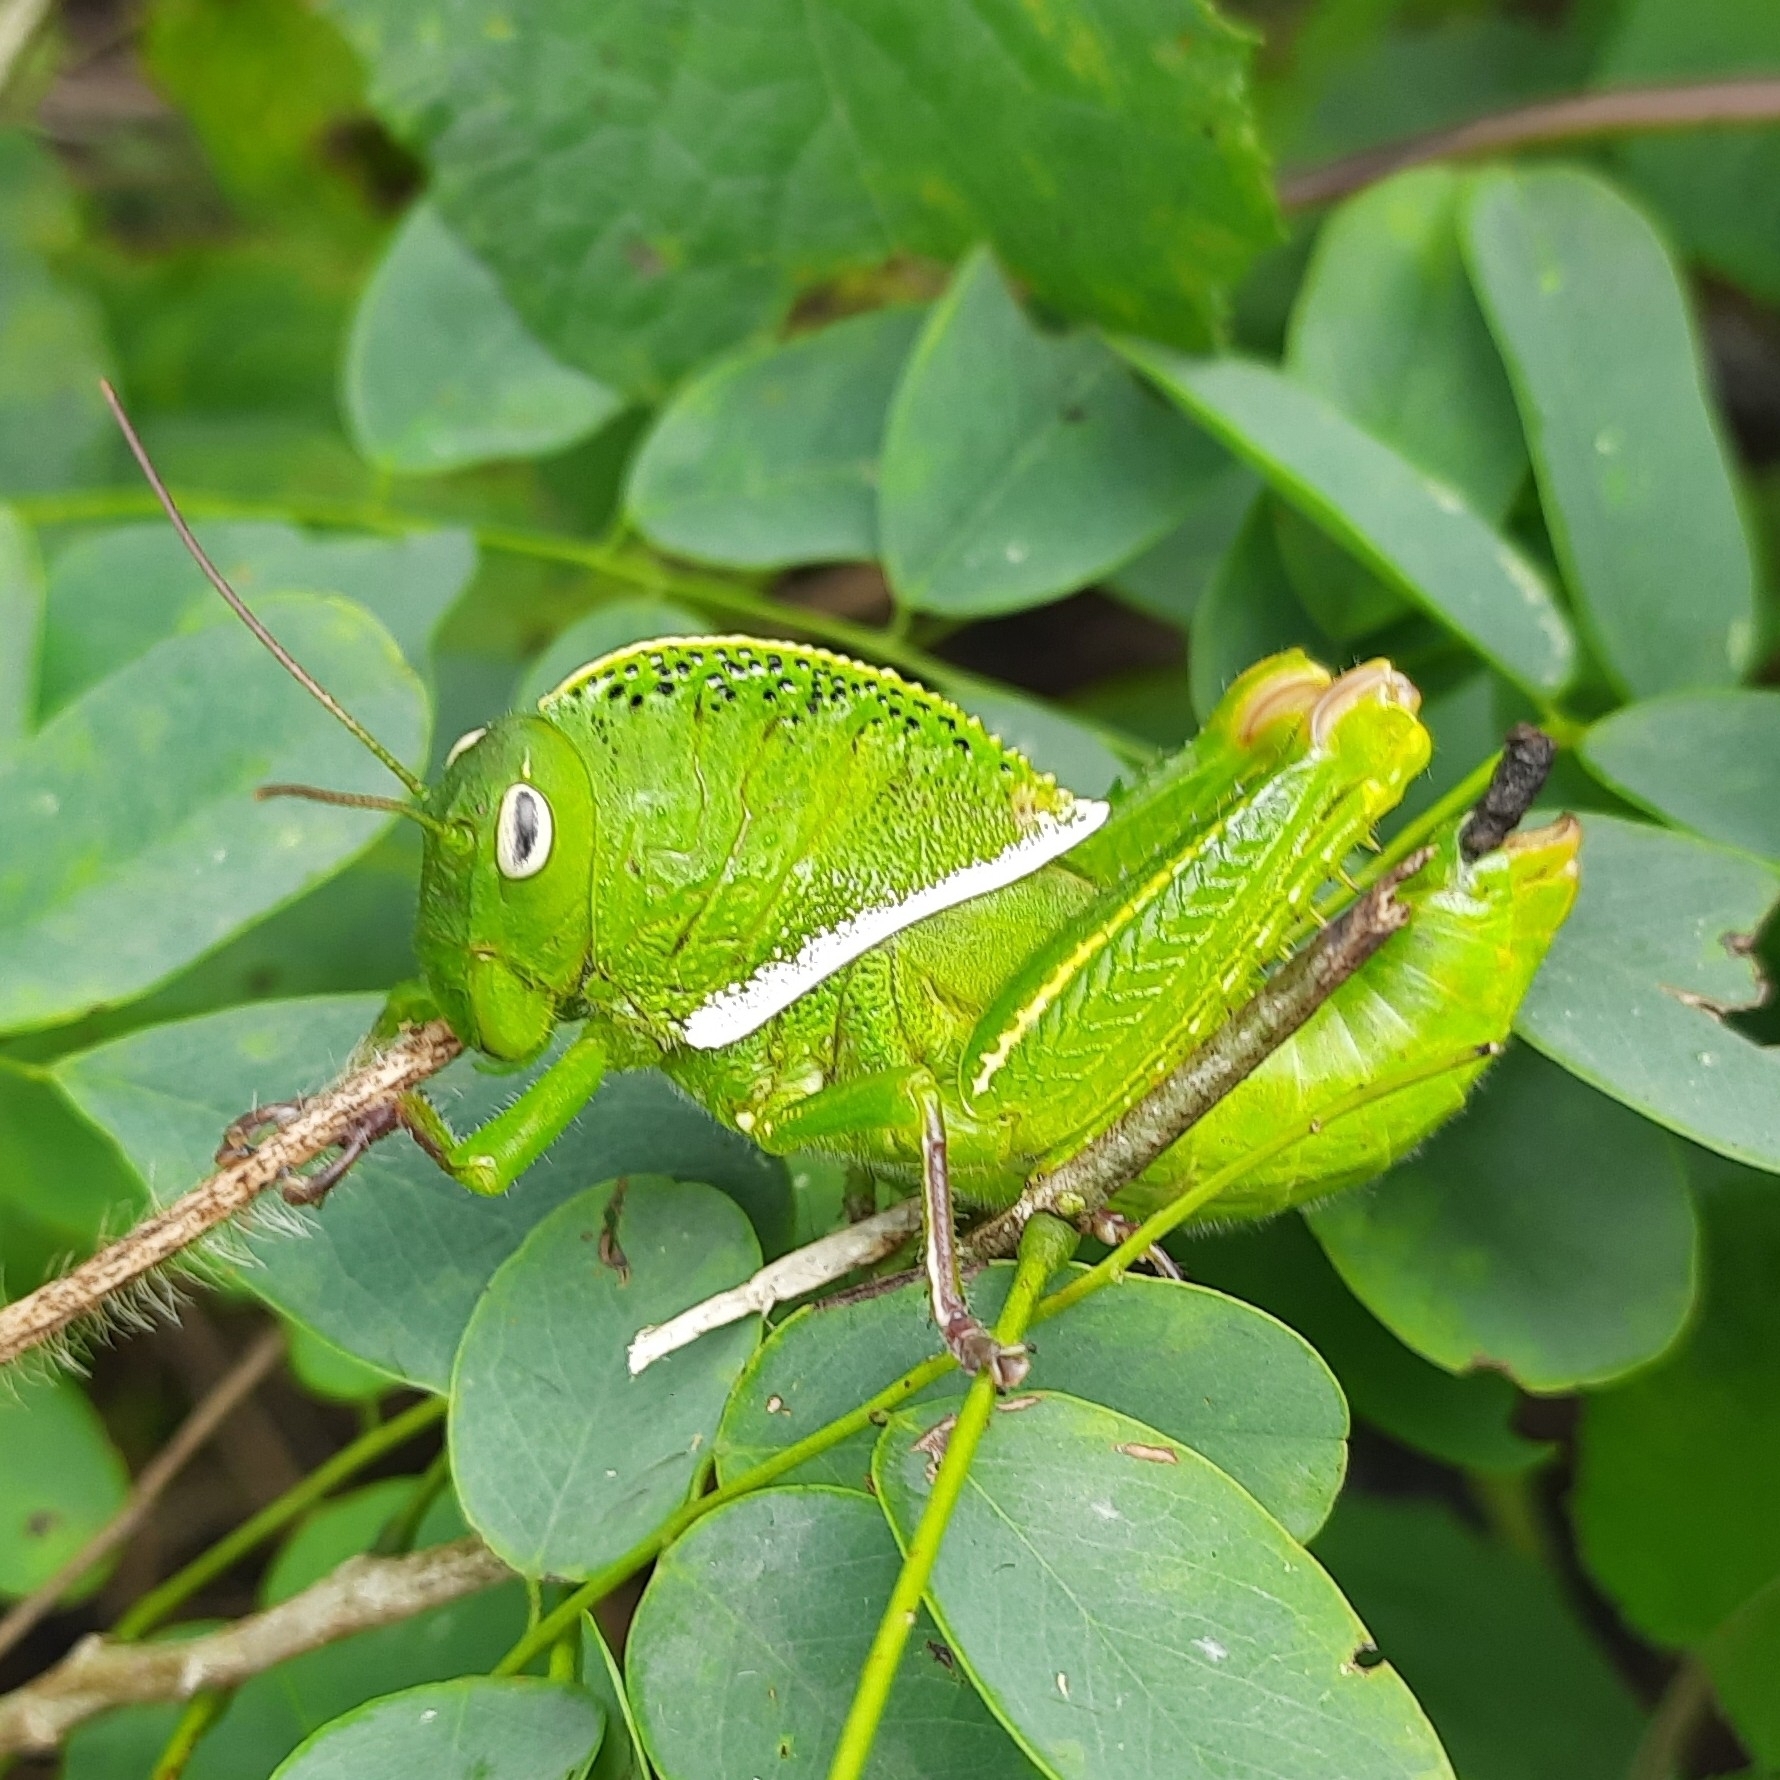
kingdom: Animalia
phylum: Arthropoda
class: Insecta
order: Orthoptera
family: Acrididae
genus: Teratodes
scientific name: Teratodes monticollis
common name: Hooded grasshopper
